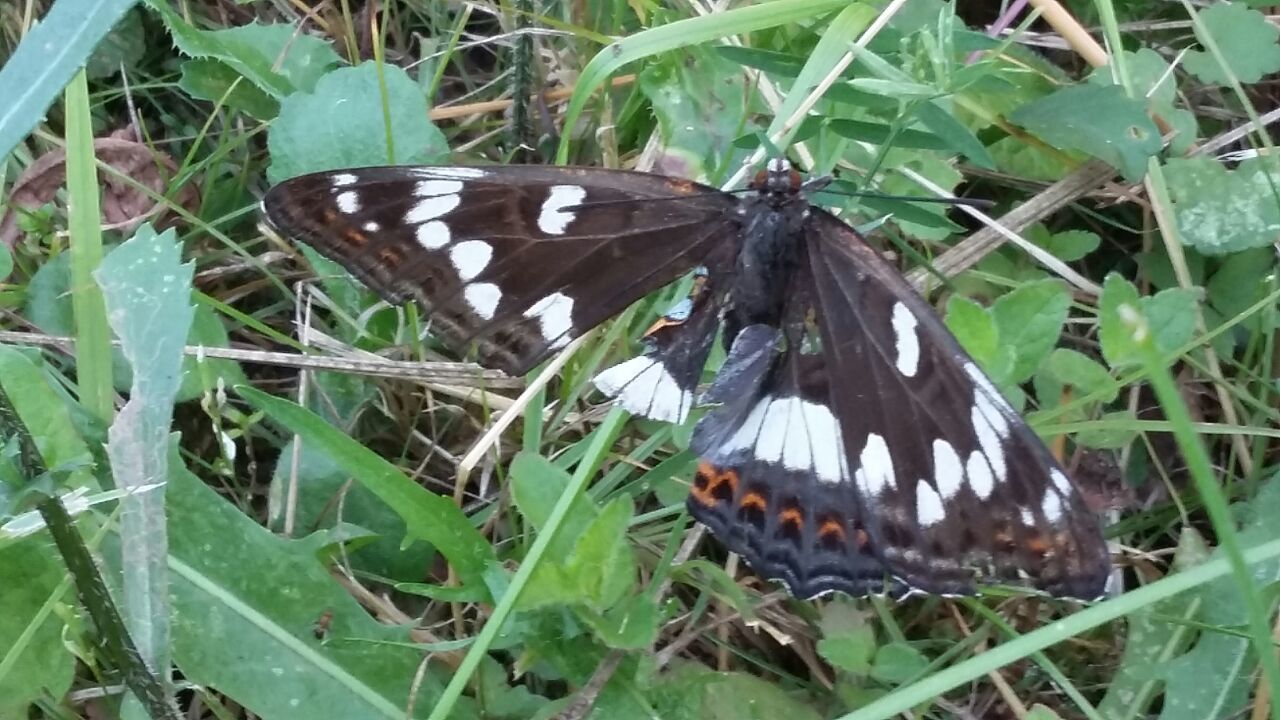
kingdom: Animalia
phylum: Arthropoda
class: Insecta
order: Lepidoptera
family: Nymphalidae
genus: Limenitis
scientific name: Limenitis populi
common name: Poplar admiral
